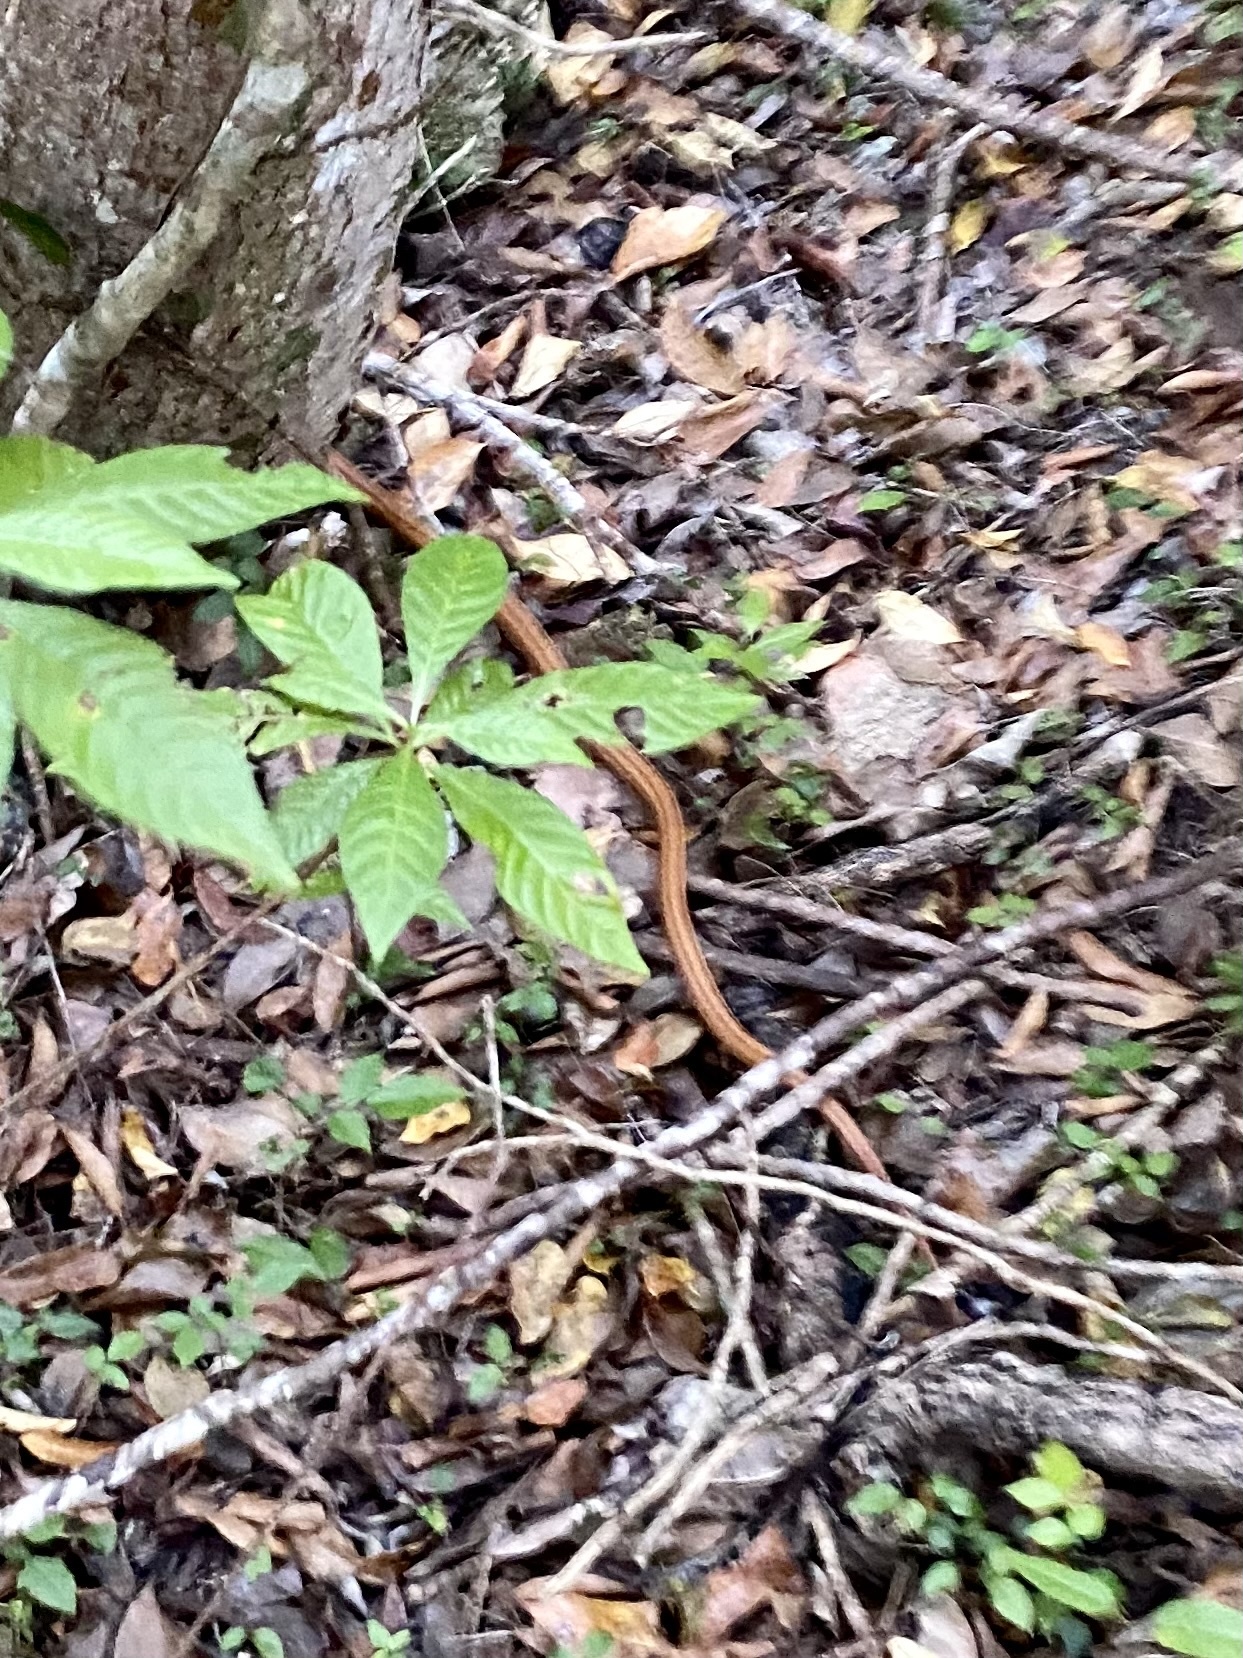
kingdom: Animalia
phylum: Chordata
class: Squamata
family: Colubridae
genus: Pantherophis
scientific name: Pantherophis alleghaniensis
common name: Eastern rat snake
